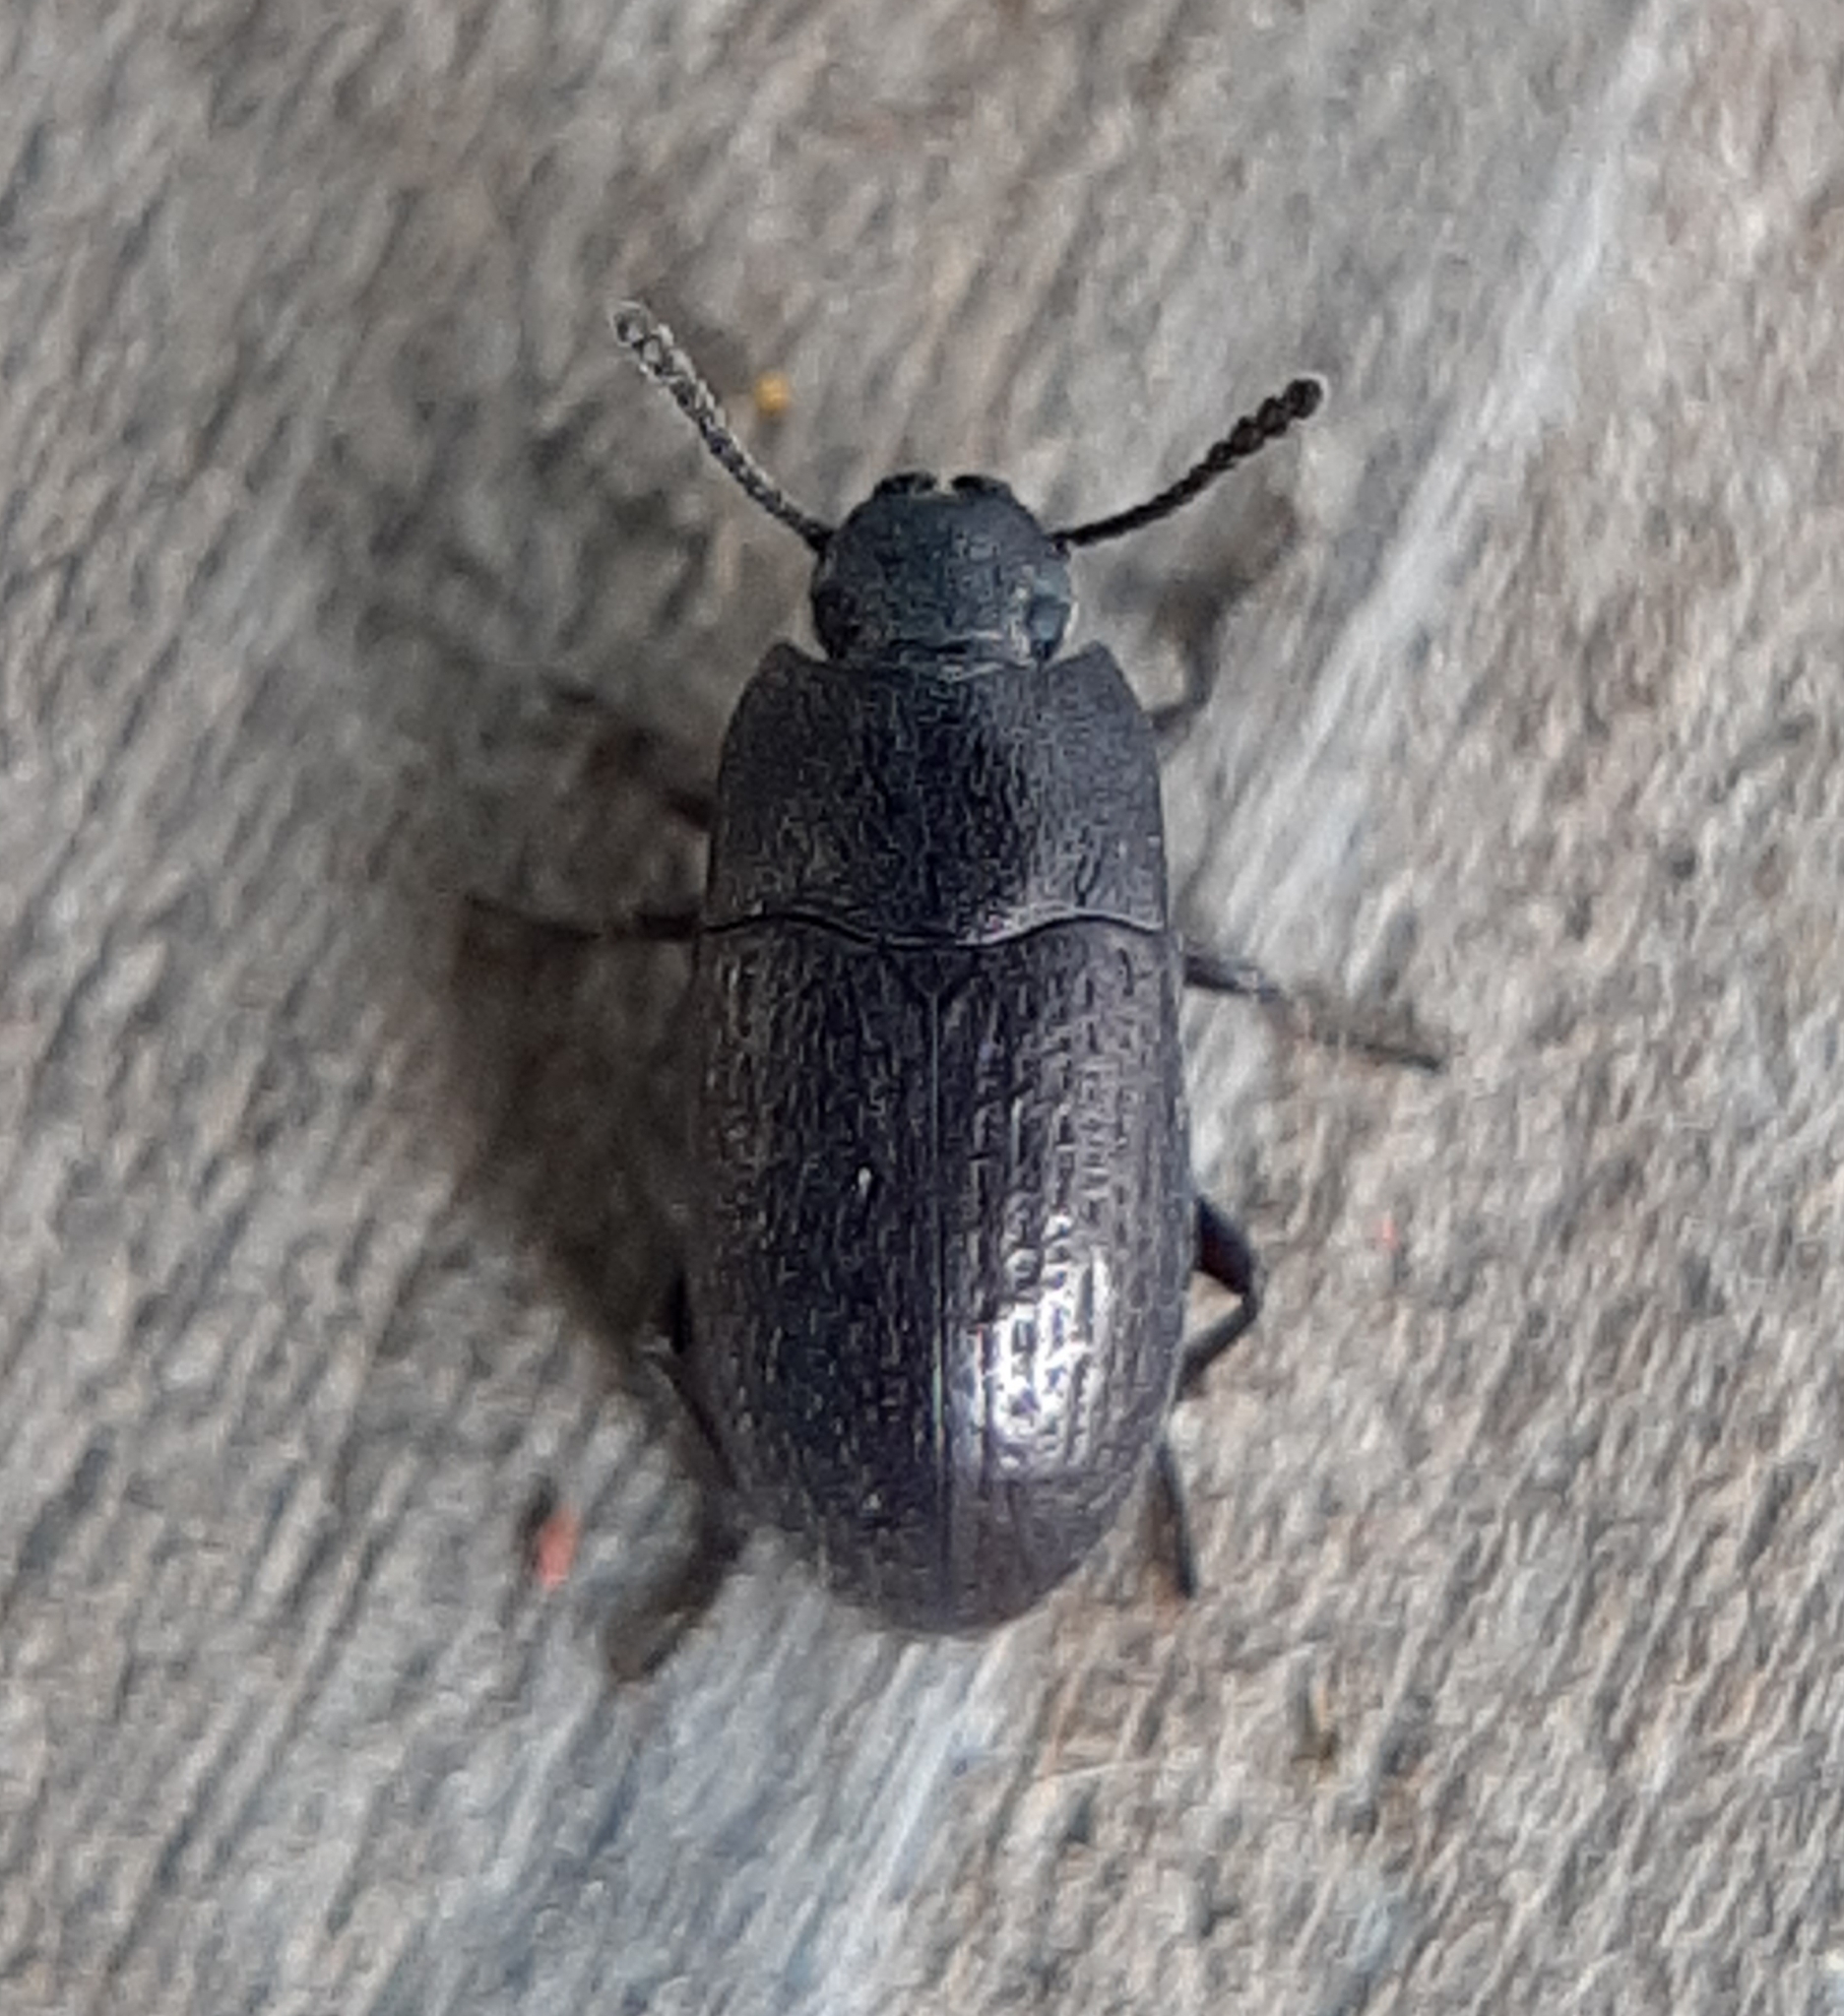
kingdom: Animalia
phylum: Arthropoda
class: Insecta
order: Coleoptera
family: Tenebrionidae
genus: Blapstinus
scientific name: Blapstinus metallicus
